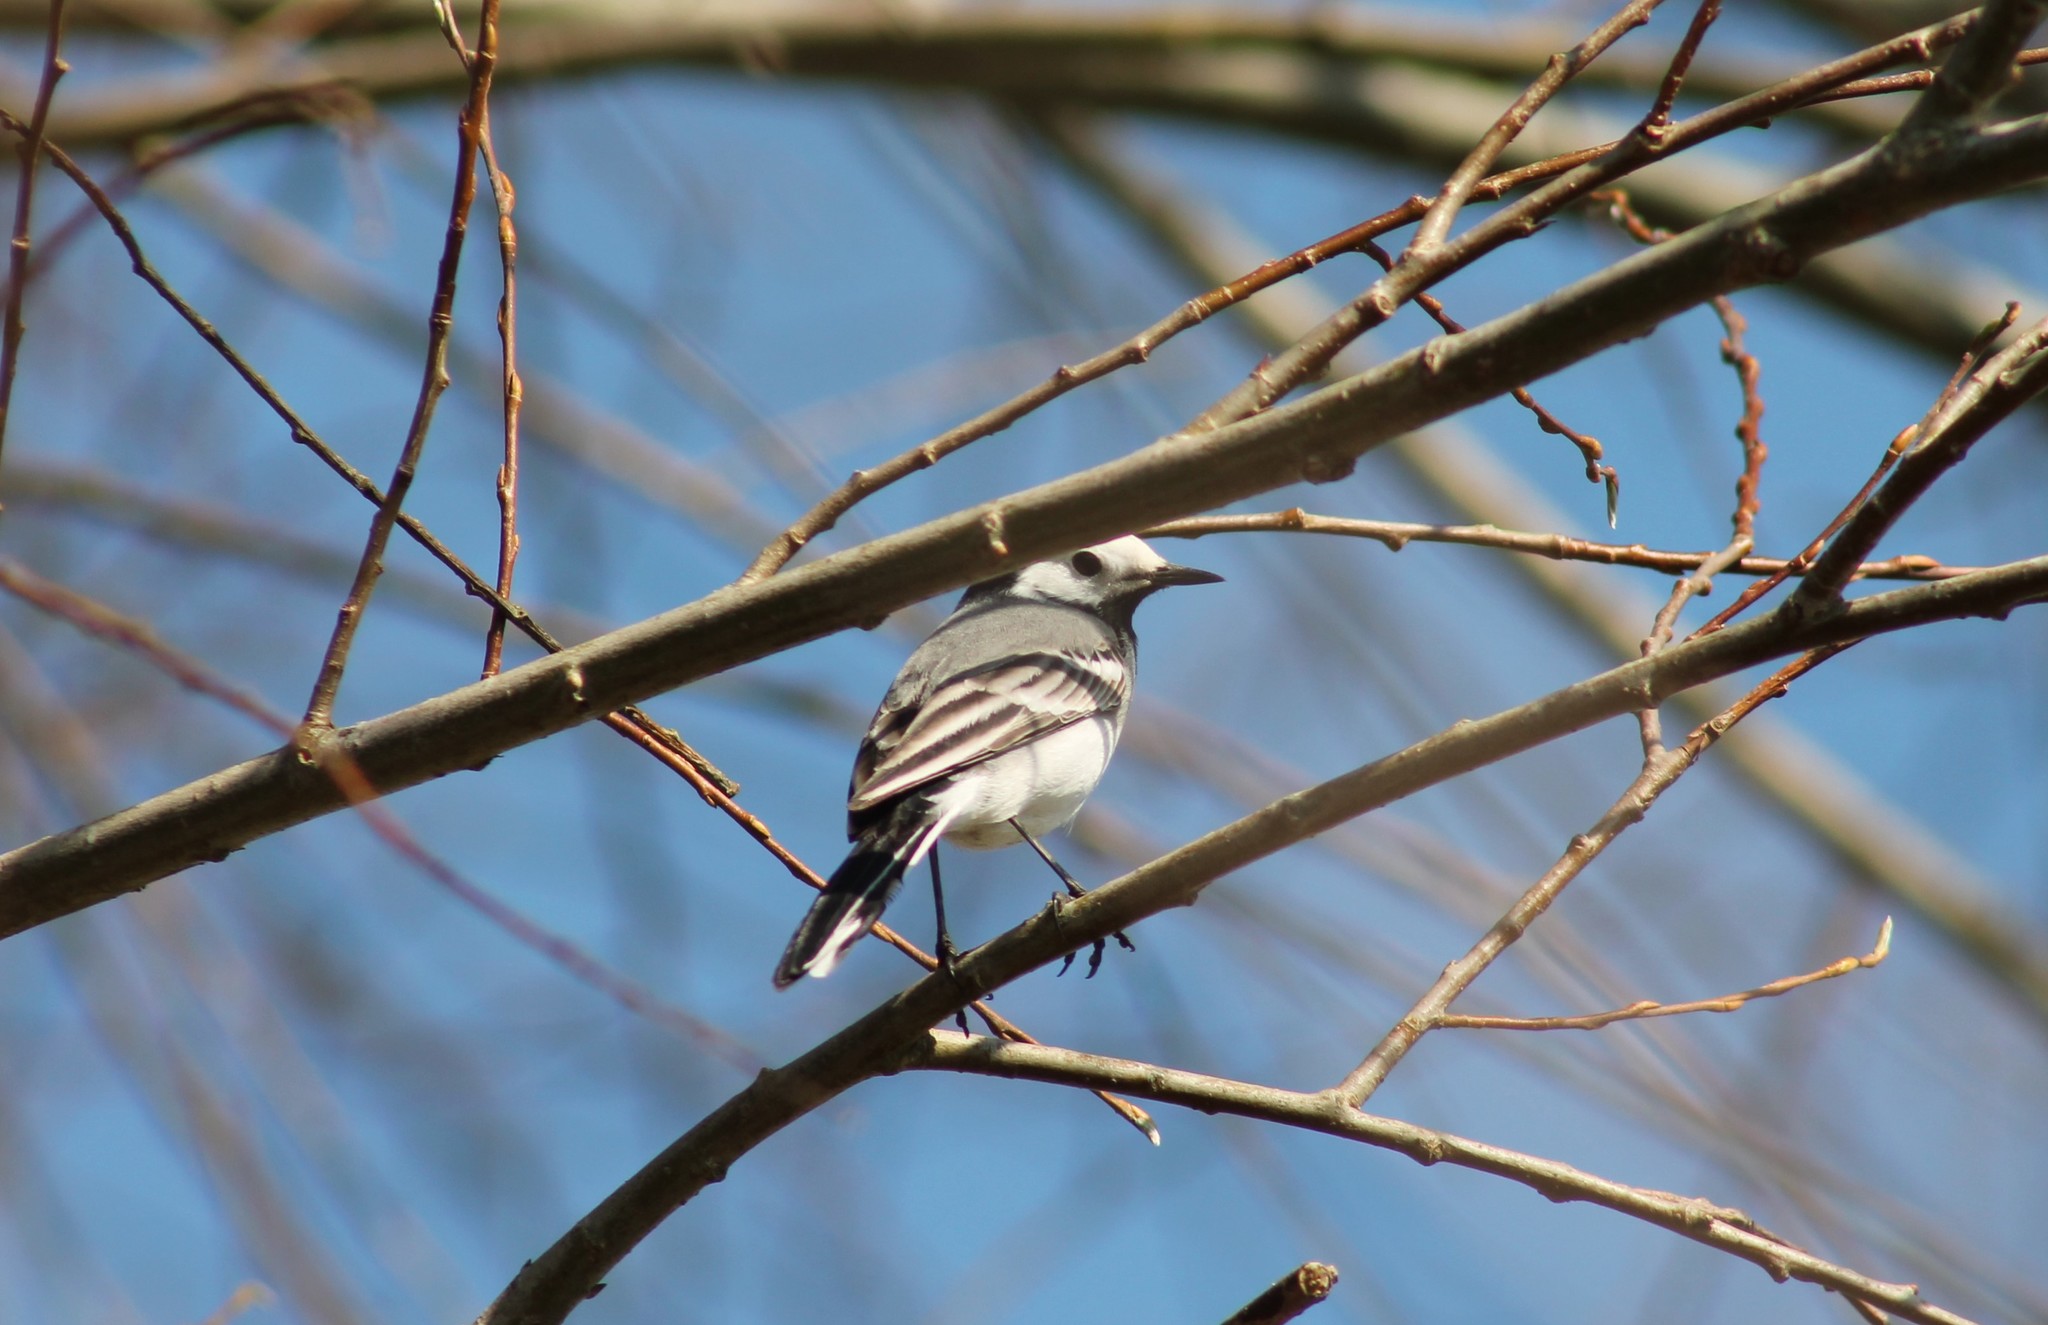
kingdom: Animalia
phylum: Chordata
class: Aves
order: Passeriformes
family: Motacillidae
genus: Motacilla
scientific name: Motacilla alba
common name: White wagtail
